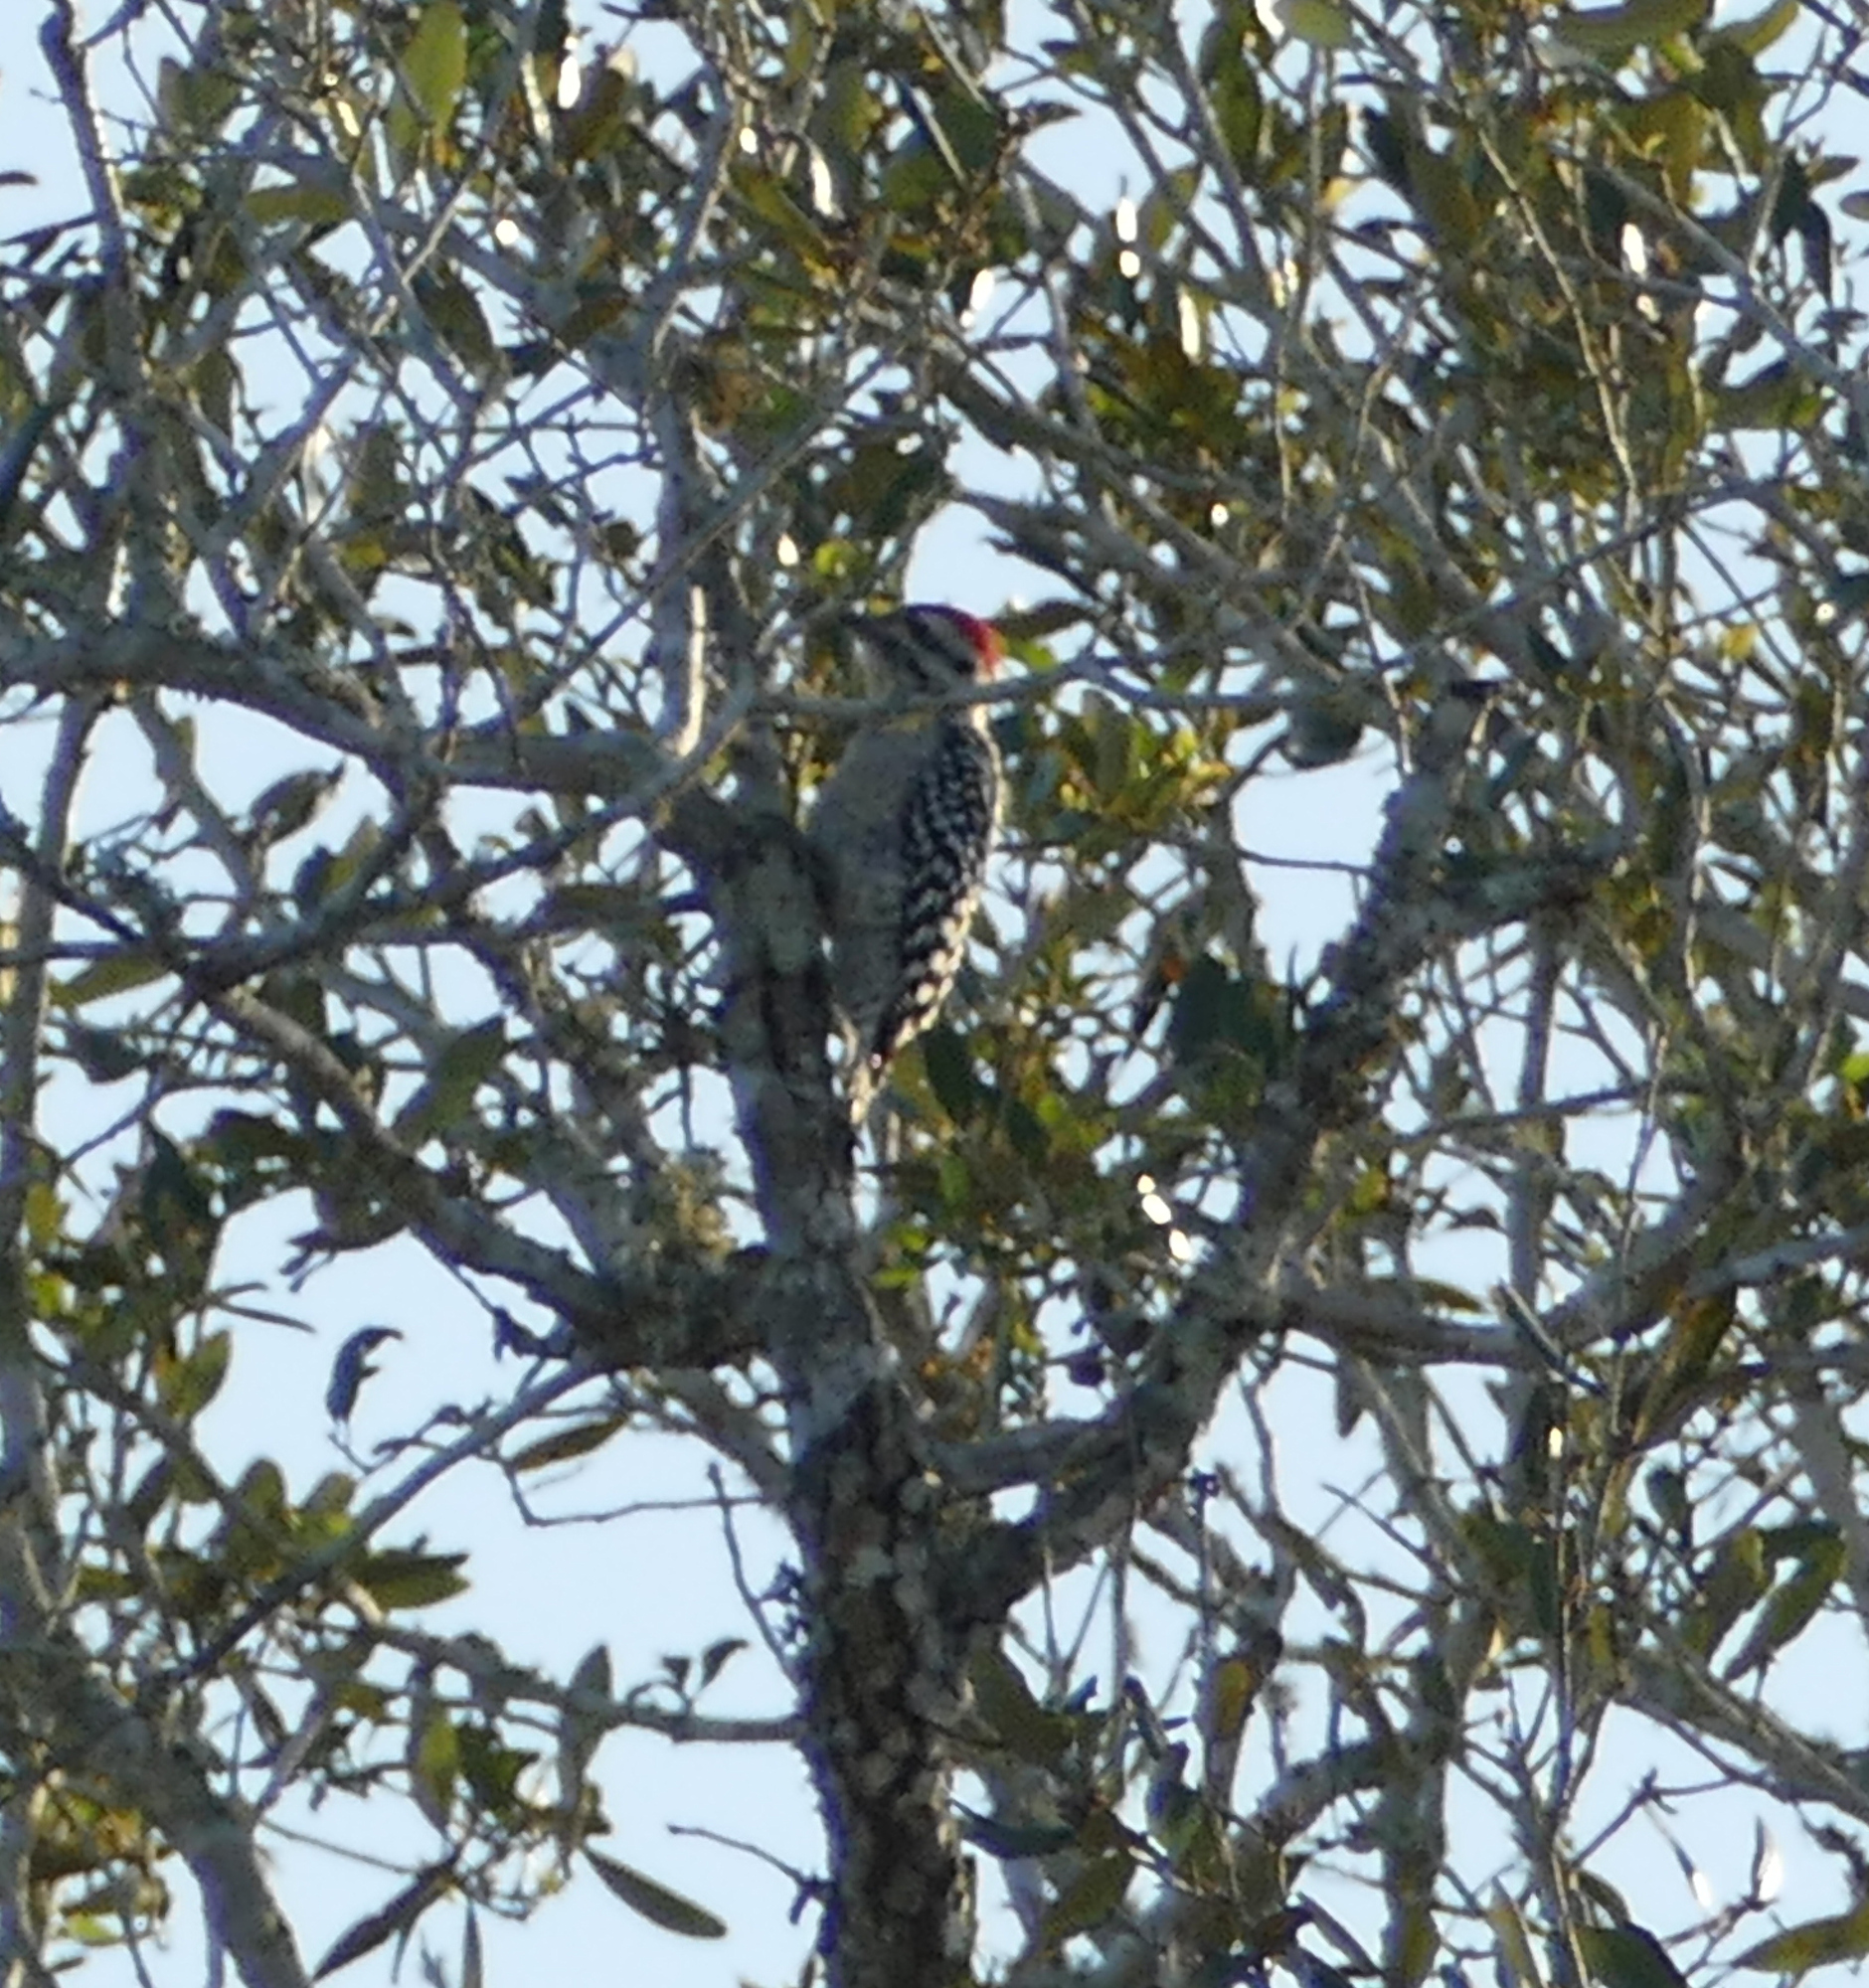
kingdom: Animalia
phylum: Chordata
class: Aves
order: Piciformes
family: Picidae
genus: Dryobates
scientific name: Dryobates scalaris
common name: Ladder-backed woodpecker
